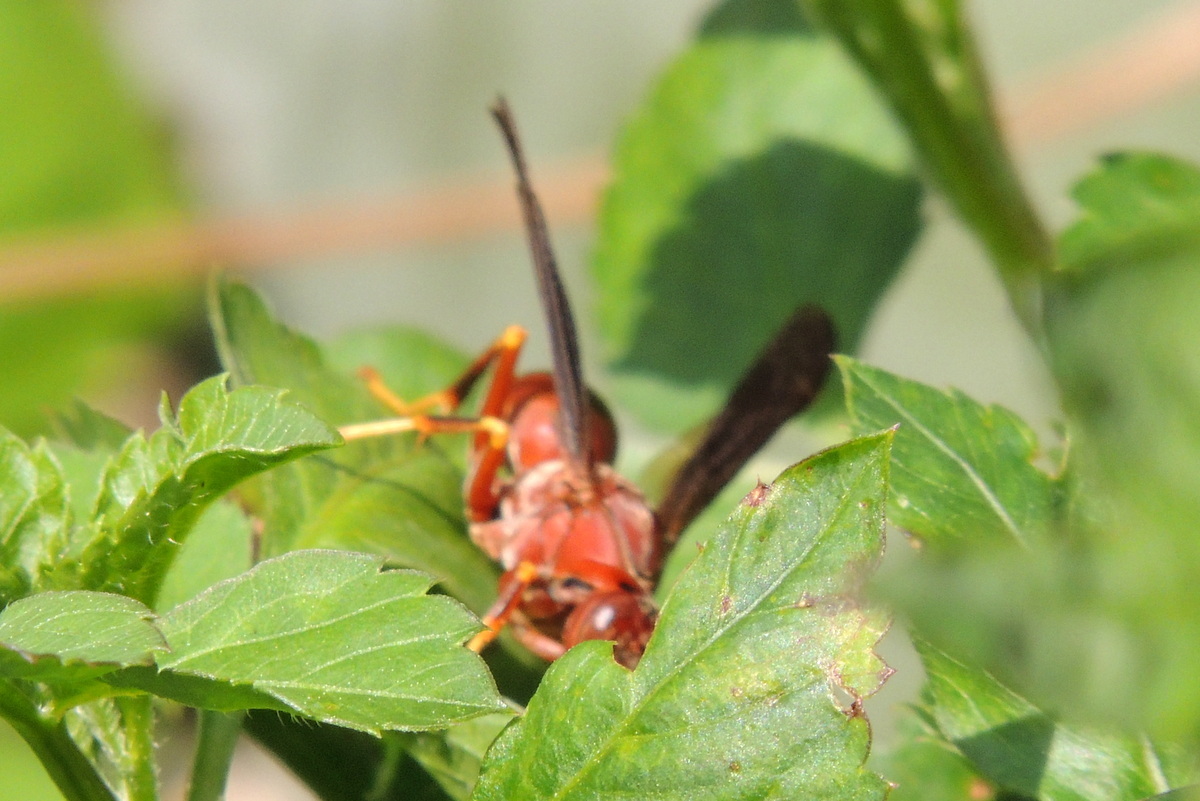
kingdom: Animalia
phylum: Arthropoda
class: Insecta
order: Hymenoptera
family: Eumenidae
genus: Polistes
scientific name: Polistes metricus
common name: Metric paper wasp
